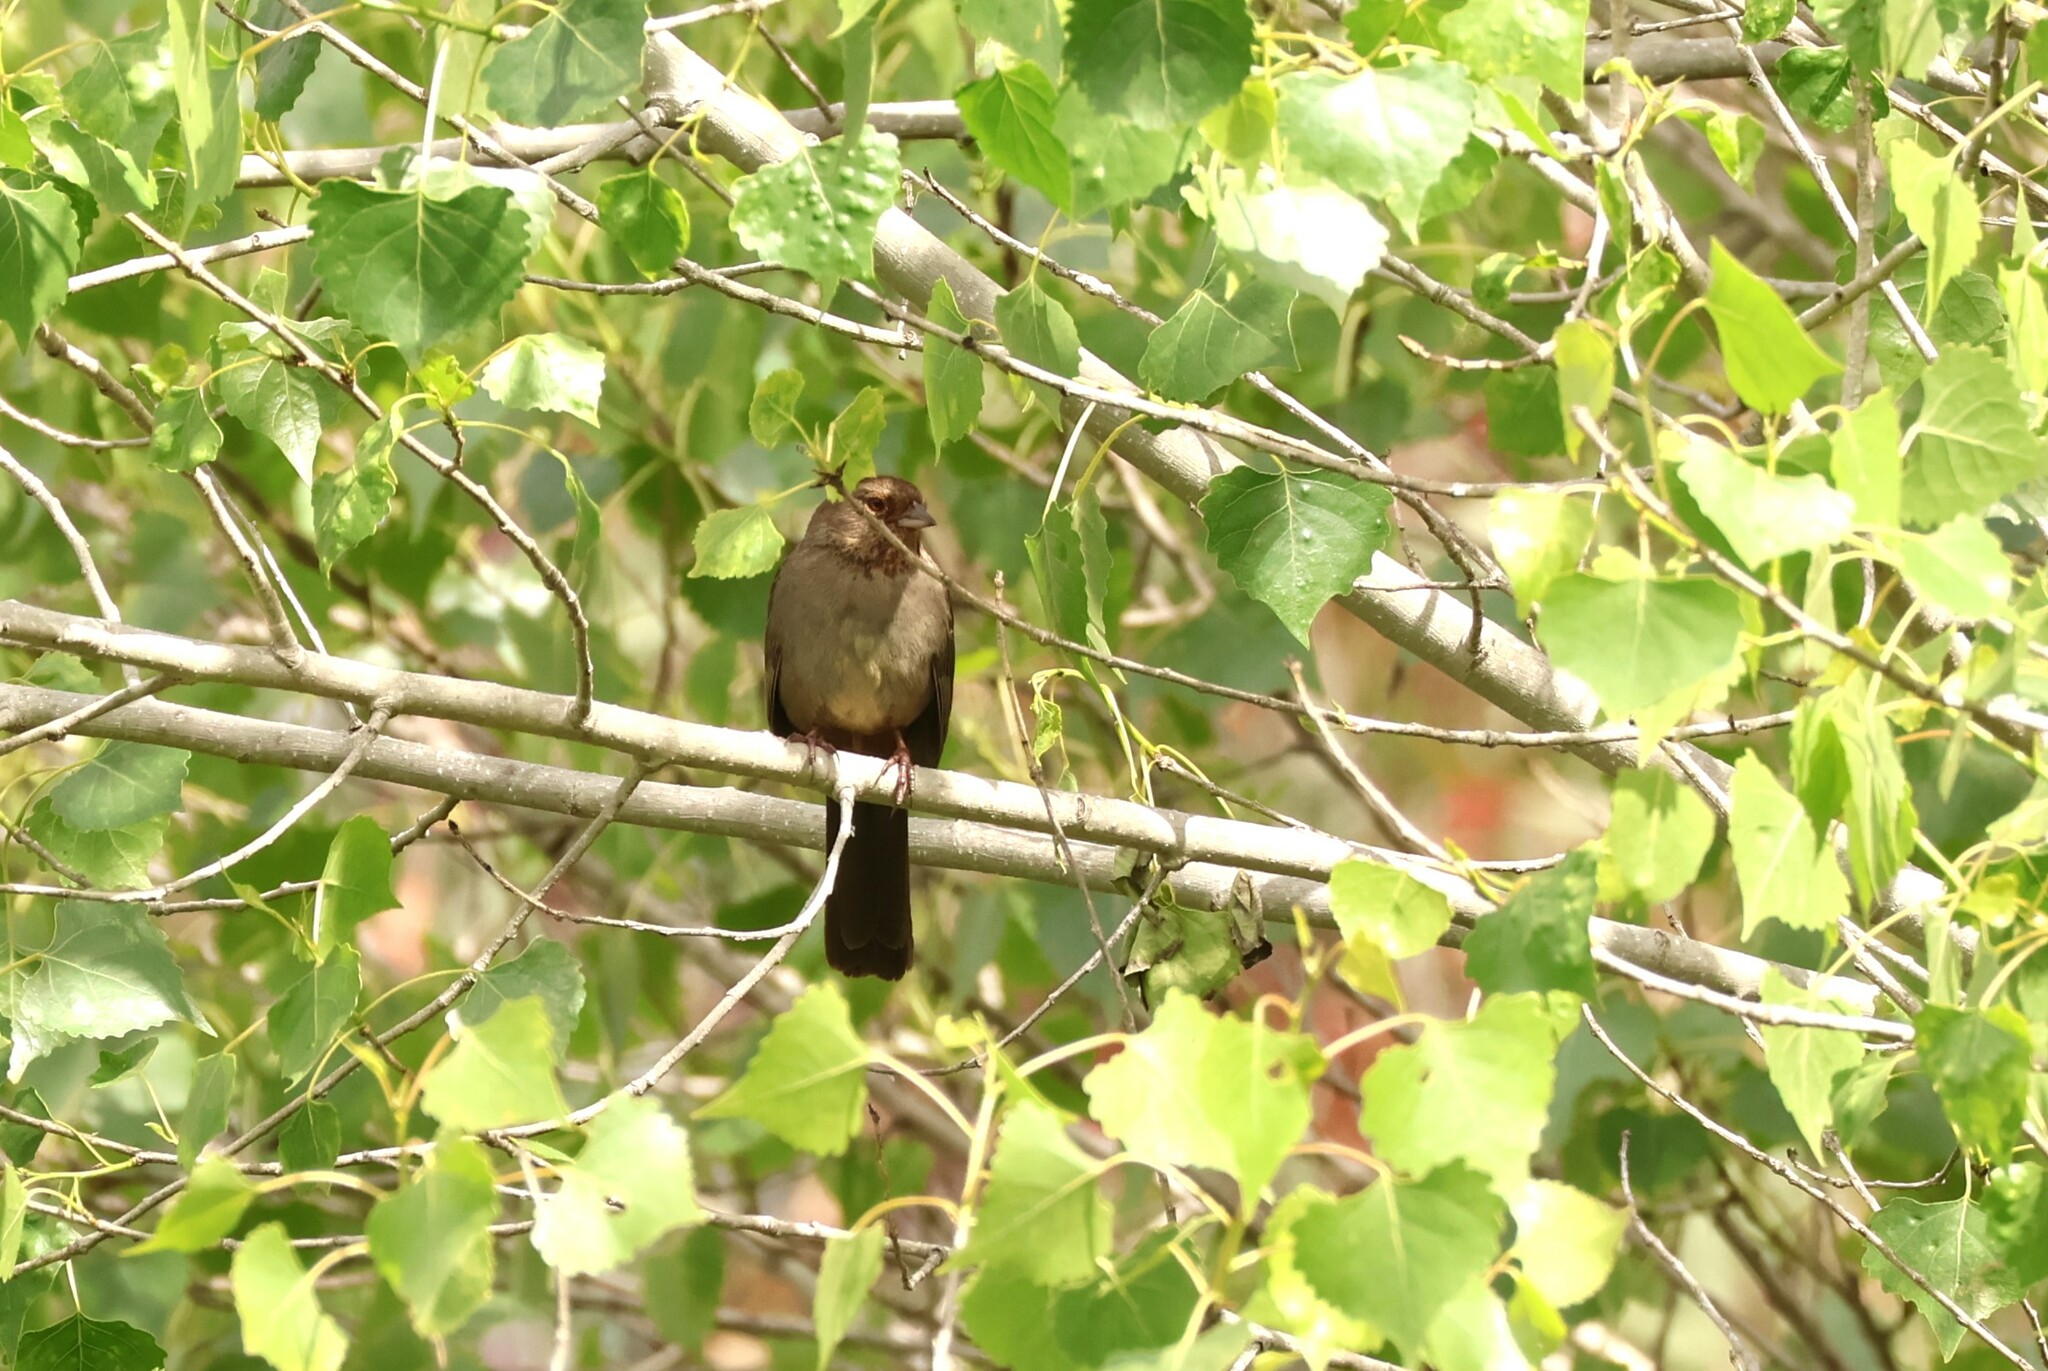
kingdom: Animalia
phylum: Chordata
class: Aves
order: Passeriformes
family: Passerellidae
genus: Melozone
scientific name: Melozone crissalis
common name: California towhee
